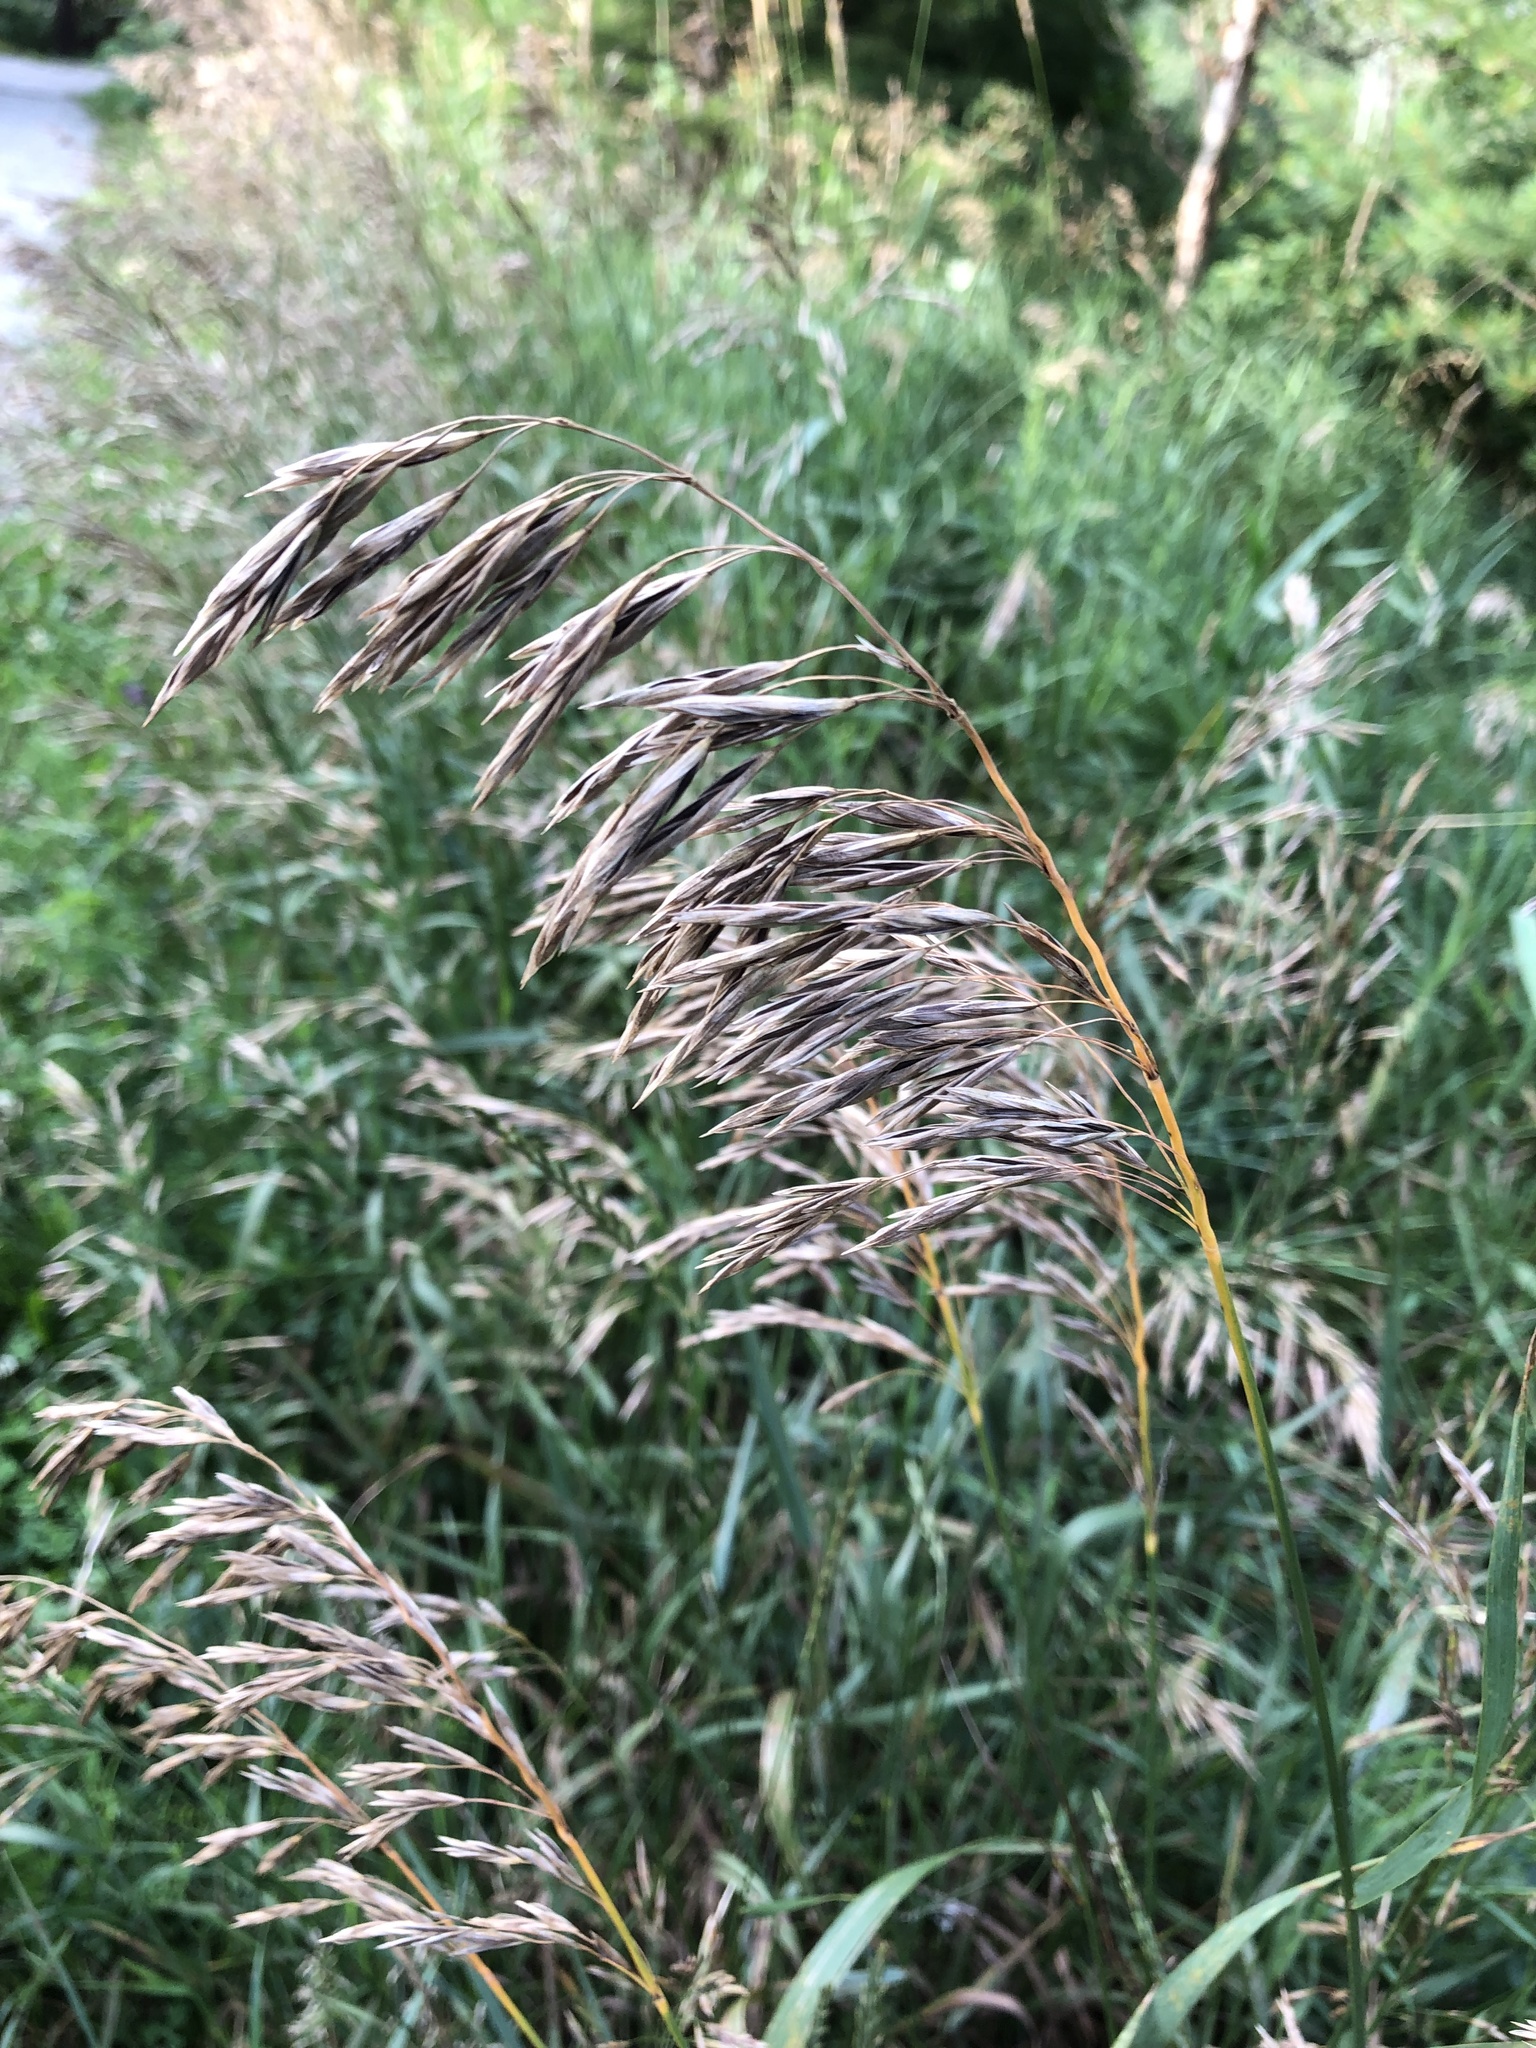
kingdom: Plantae
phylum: Tracheophyta
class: Liliopsida
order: Poales
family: Poaceae
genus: Bromus
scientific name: Bromus inermis
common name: Smooth brome
